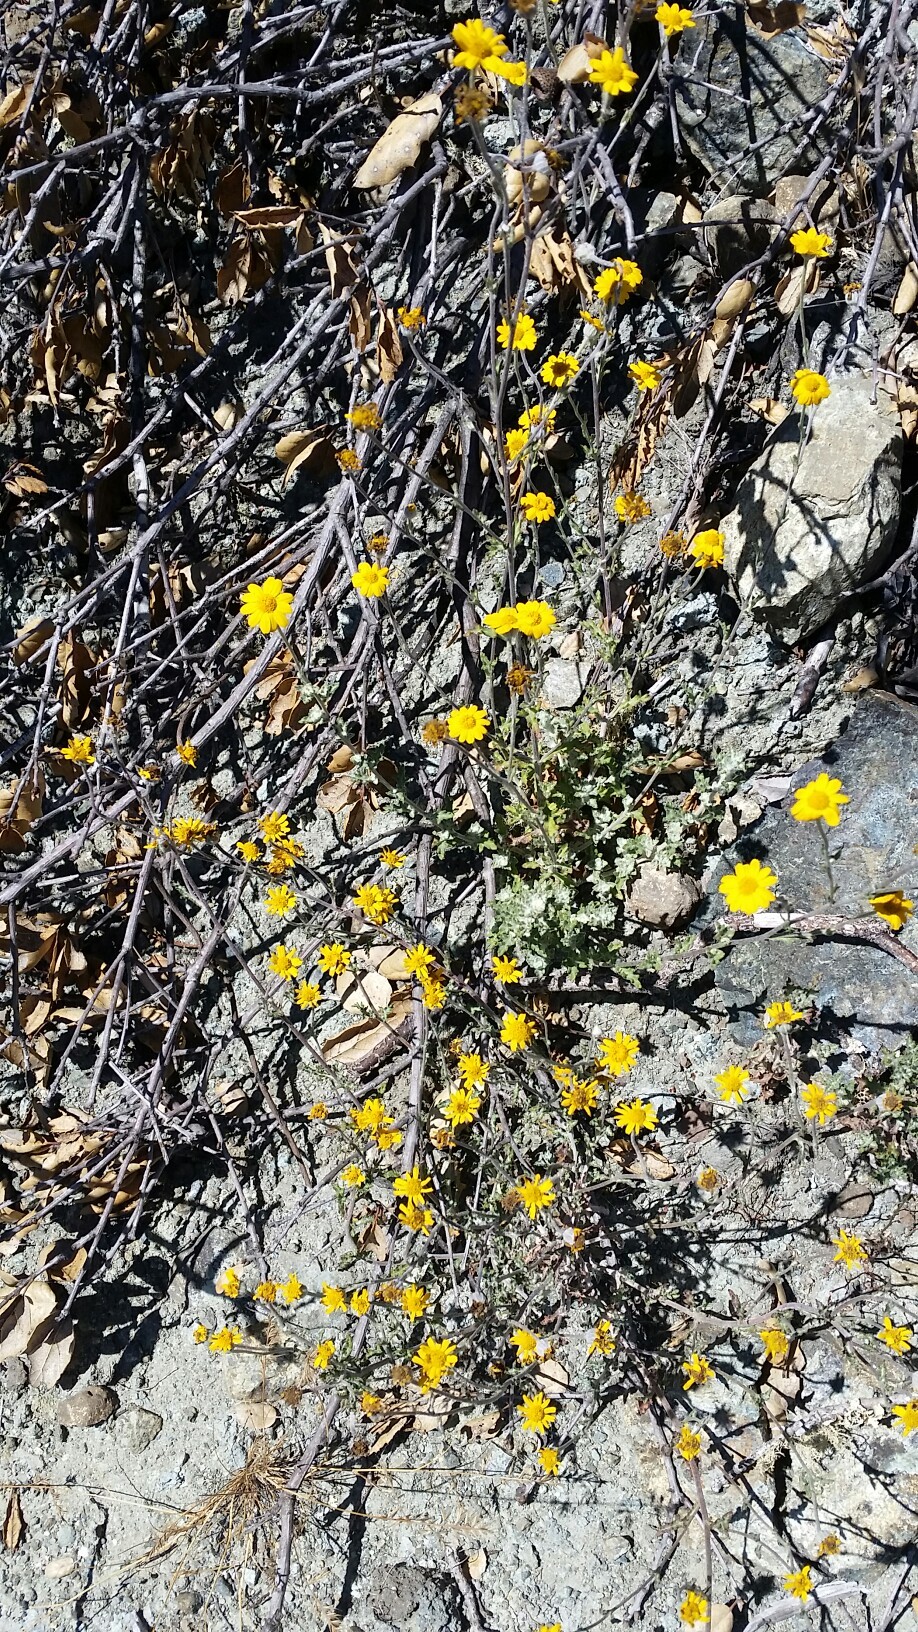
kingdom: Plantae
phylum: Tracheophyta
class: Magnoliopsida
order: Asterales
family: Asteraceae
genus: Eriophyllum
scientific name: Eriophyllum lanatum
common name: Common woolly-sunflower
